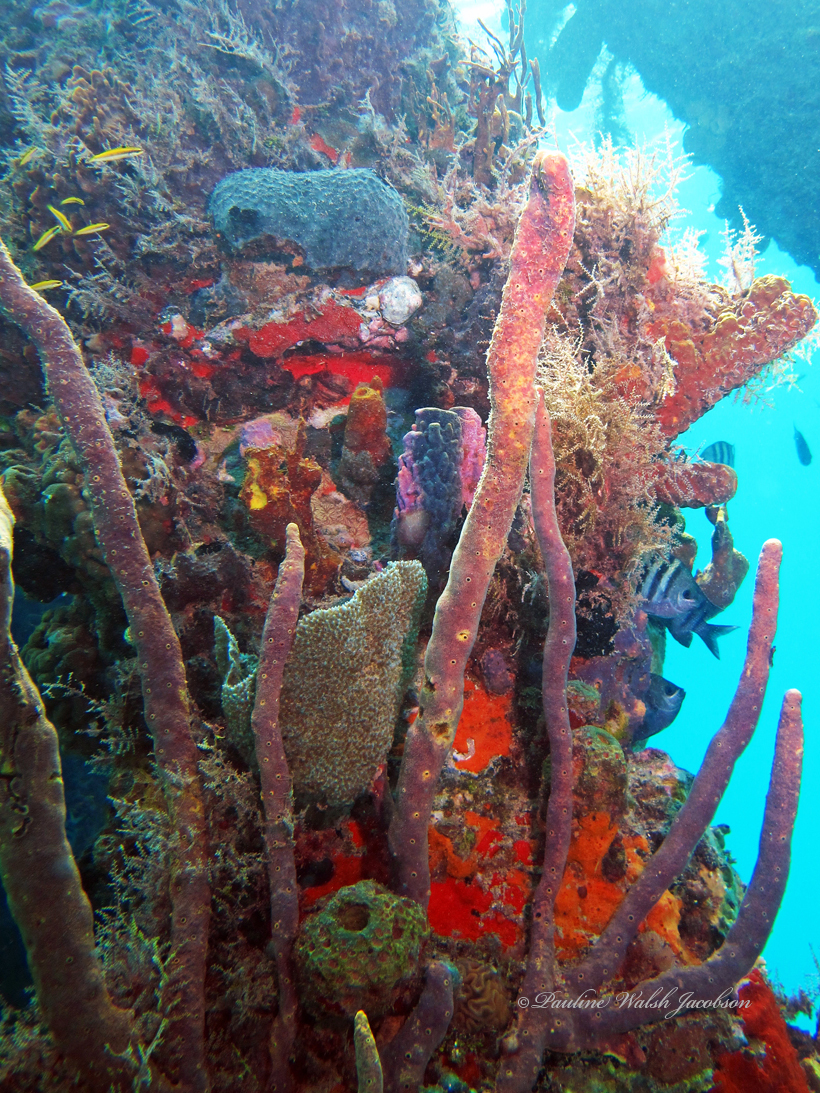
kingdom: Animalia
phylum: Chordata
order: Perciformes
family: Labridae
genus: Thalassoma
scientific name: Thalassoma bifasciatum
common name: Bluehead wrasse
